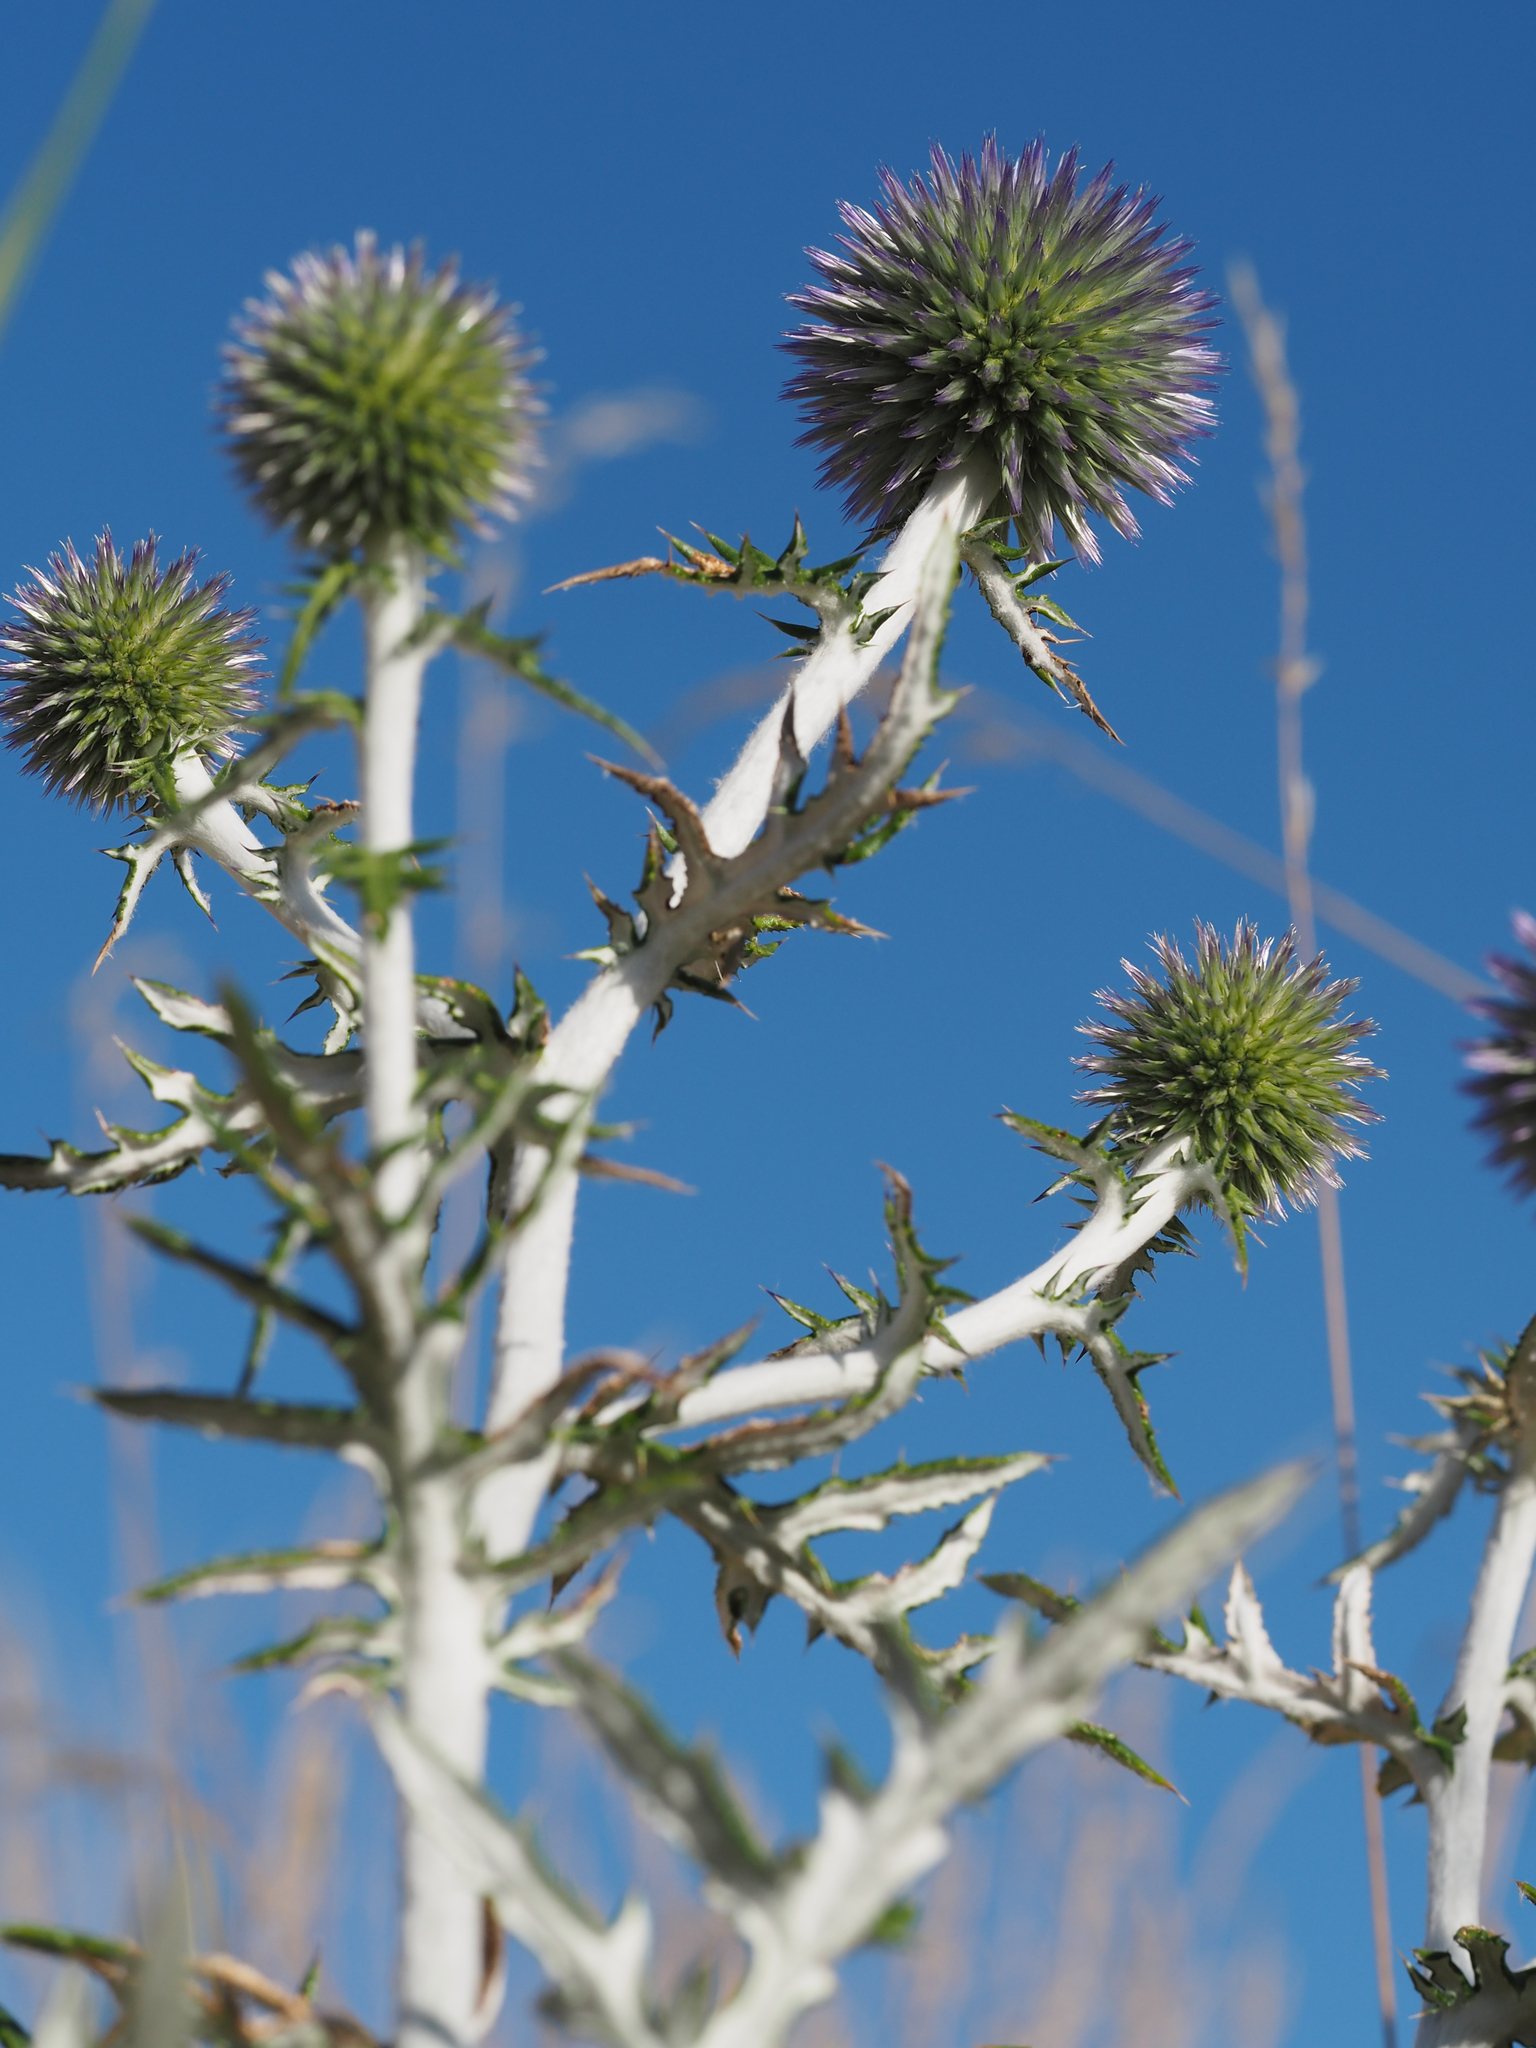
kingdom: Plantae
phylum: Tracheophyta
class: Magnoliopsida
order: Asterales
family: Asteraceae
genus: Echinops
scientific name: Echinops ritro
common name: Globe thistle
